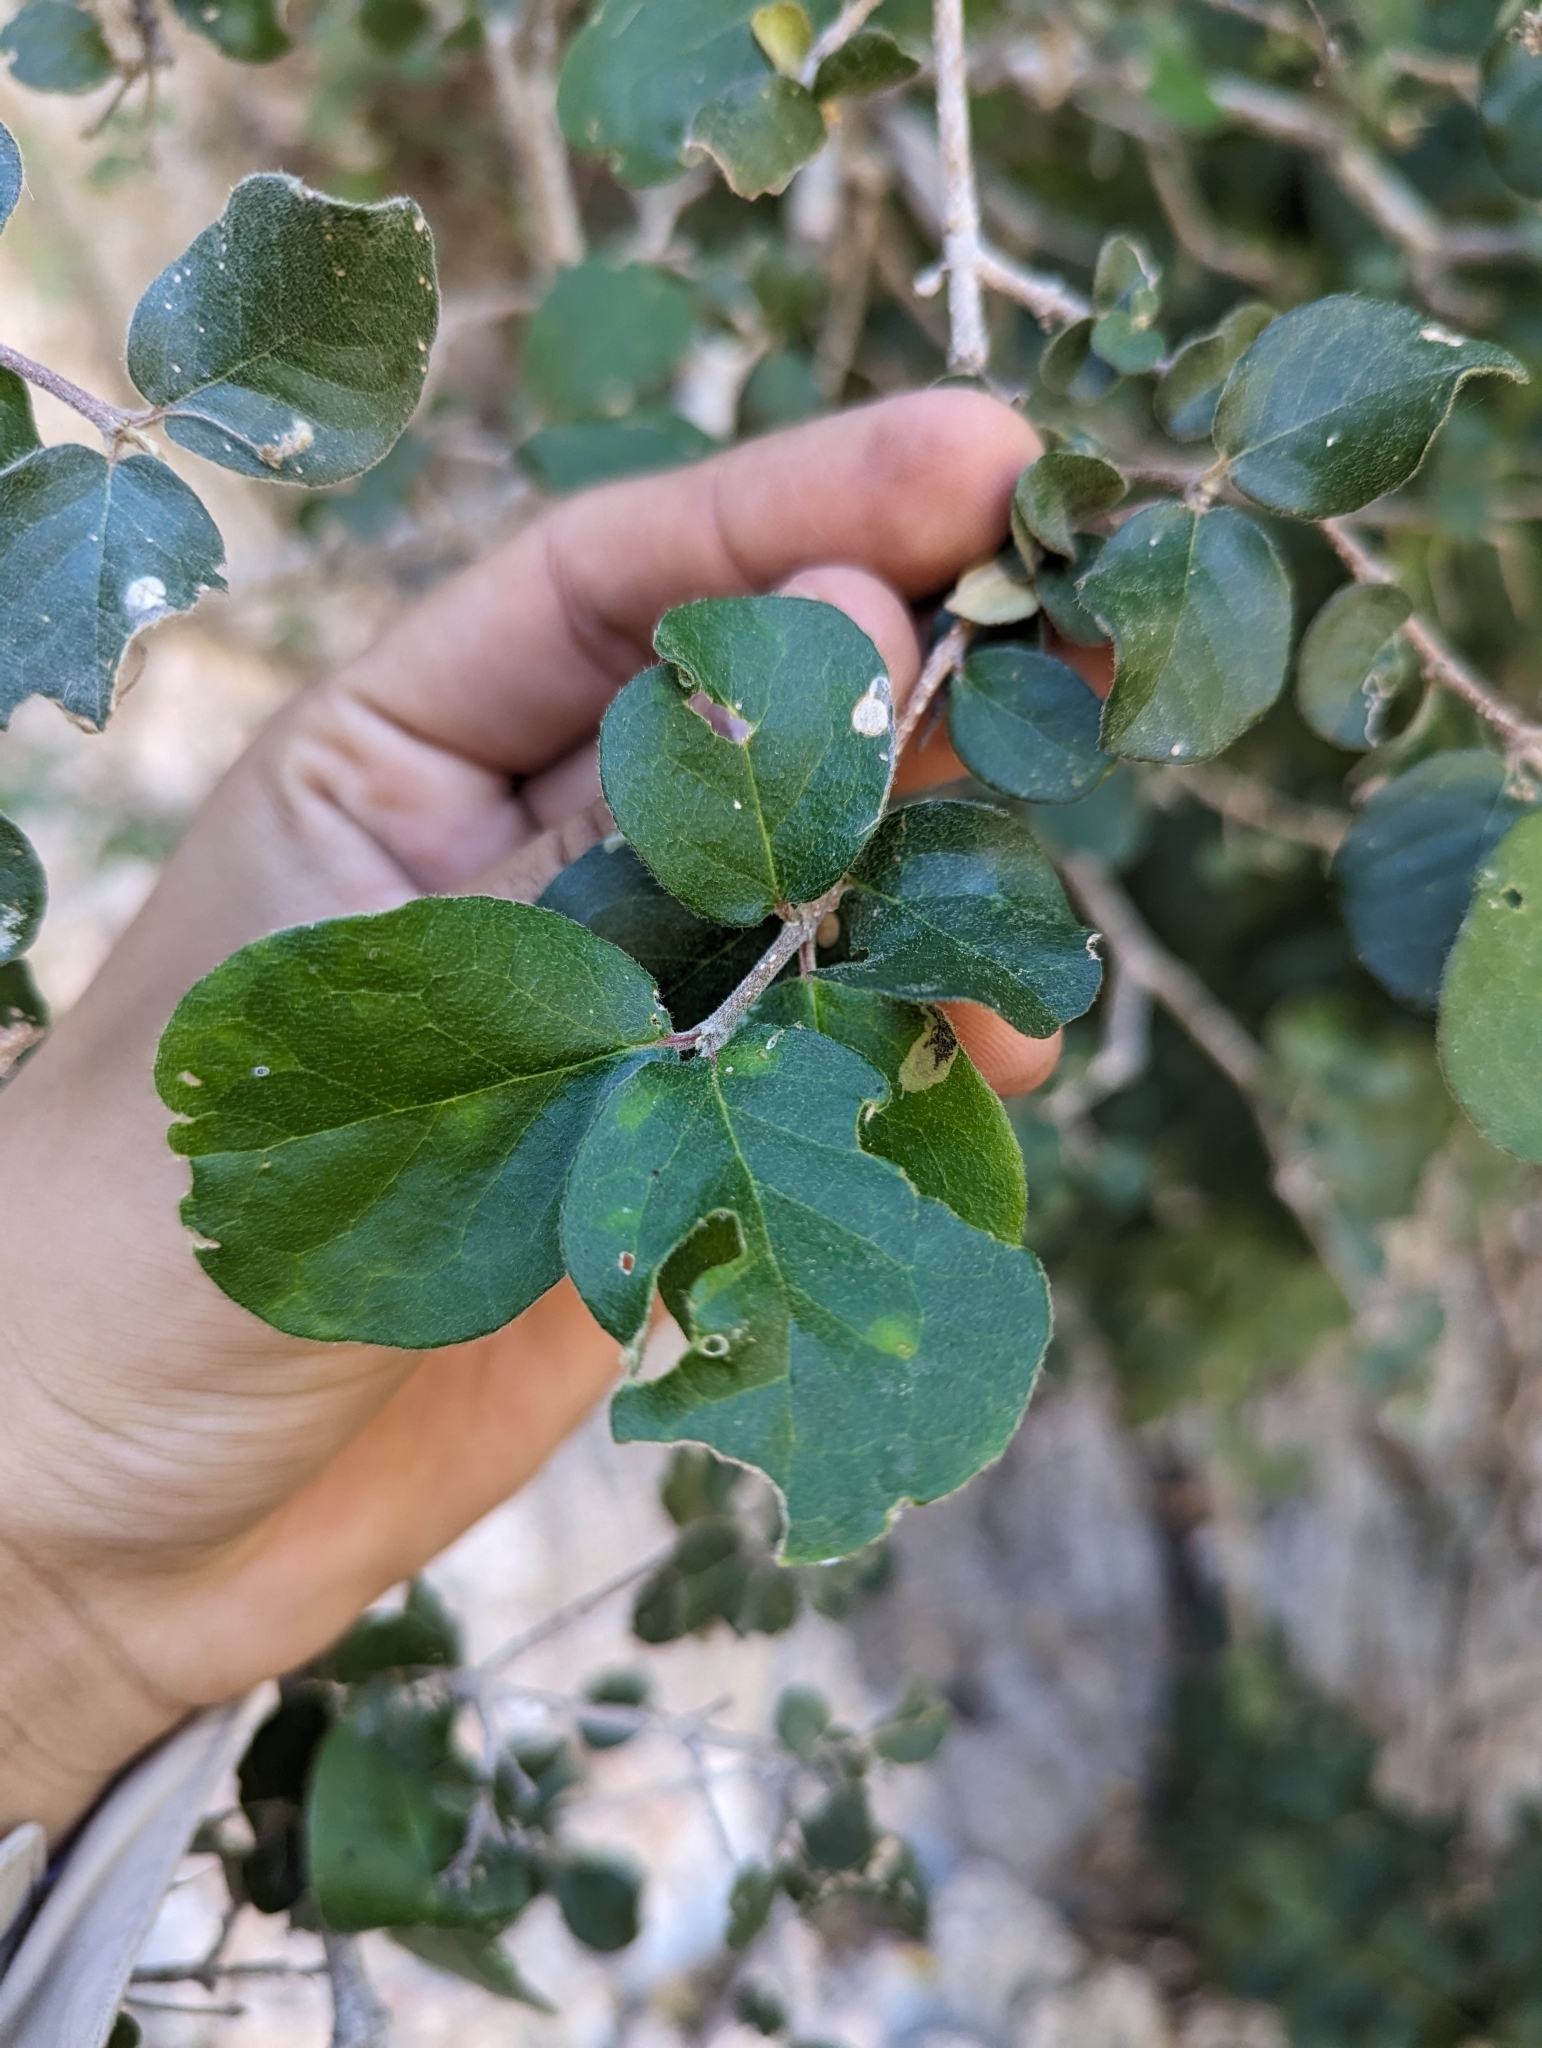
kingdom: Plantae
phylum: Tracheophyta
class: Magnoliopsida
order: Malpighiales
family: Malpighiaceae
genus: Malpighia
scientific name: Malpighia diversifolia
